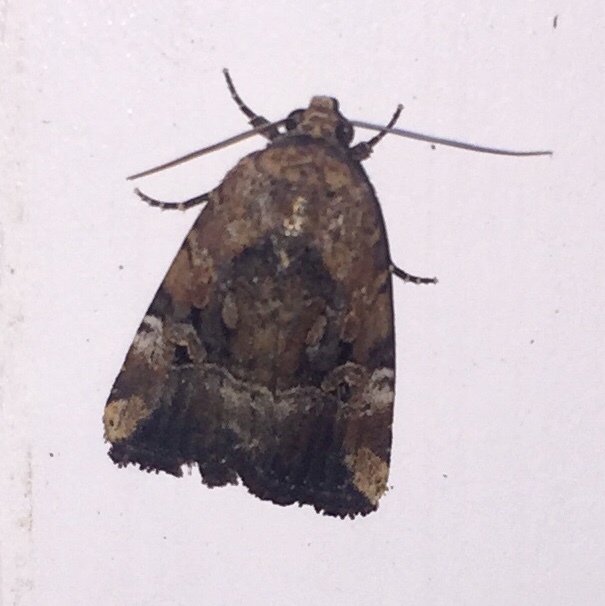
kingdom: Animalia
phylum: Arthropoda
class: Insecta
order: Lepidoptera
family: Noctuidae
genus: Elaphria
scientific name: Elaphria chalcedonia
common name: Chalcedony midget
